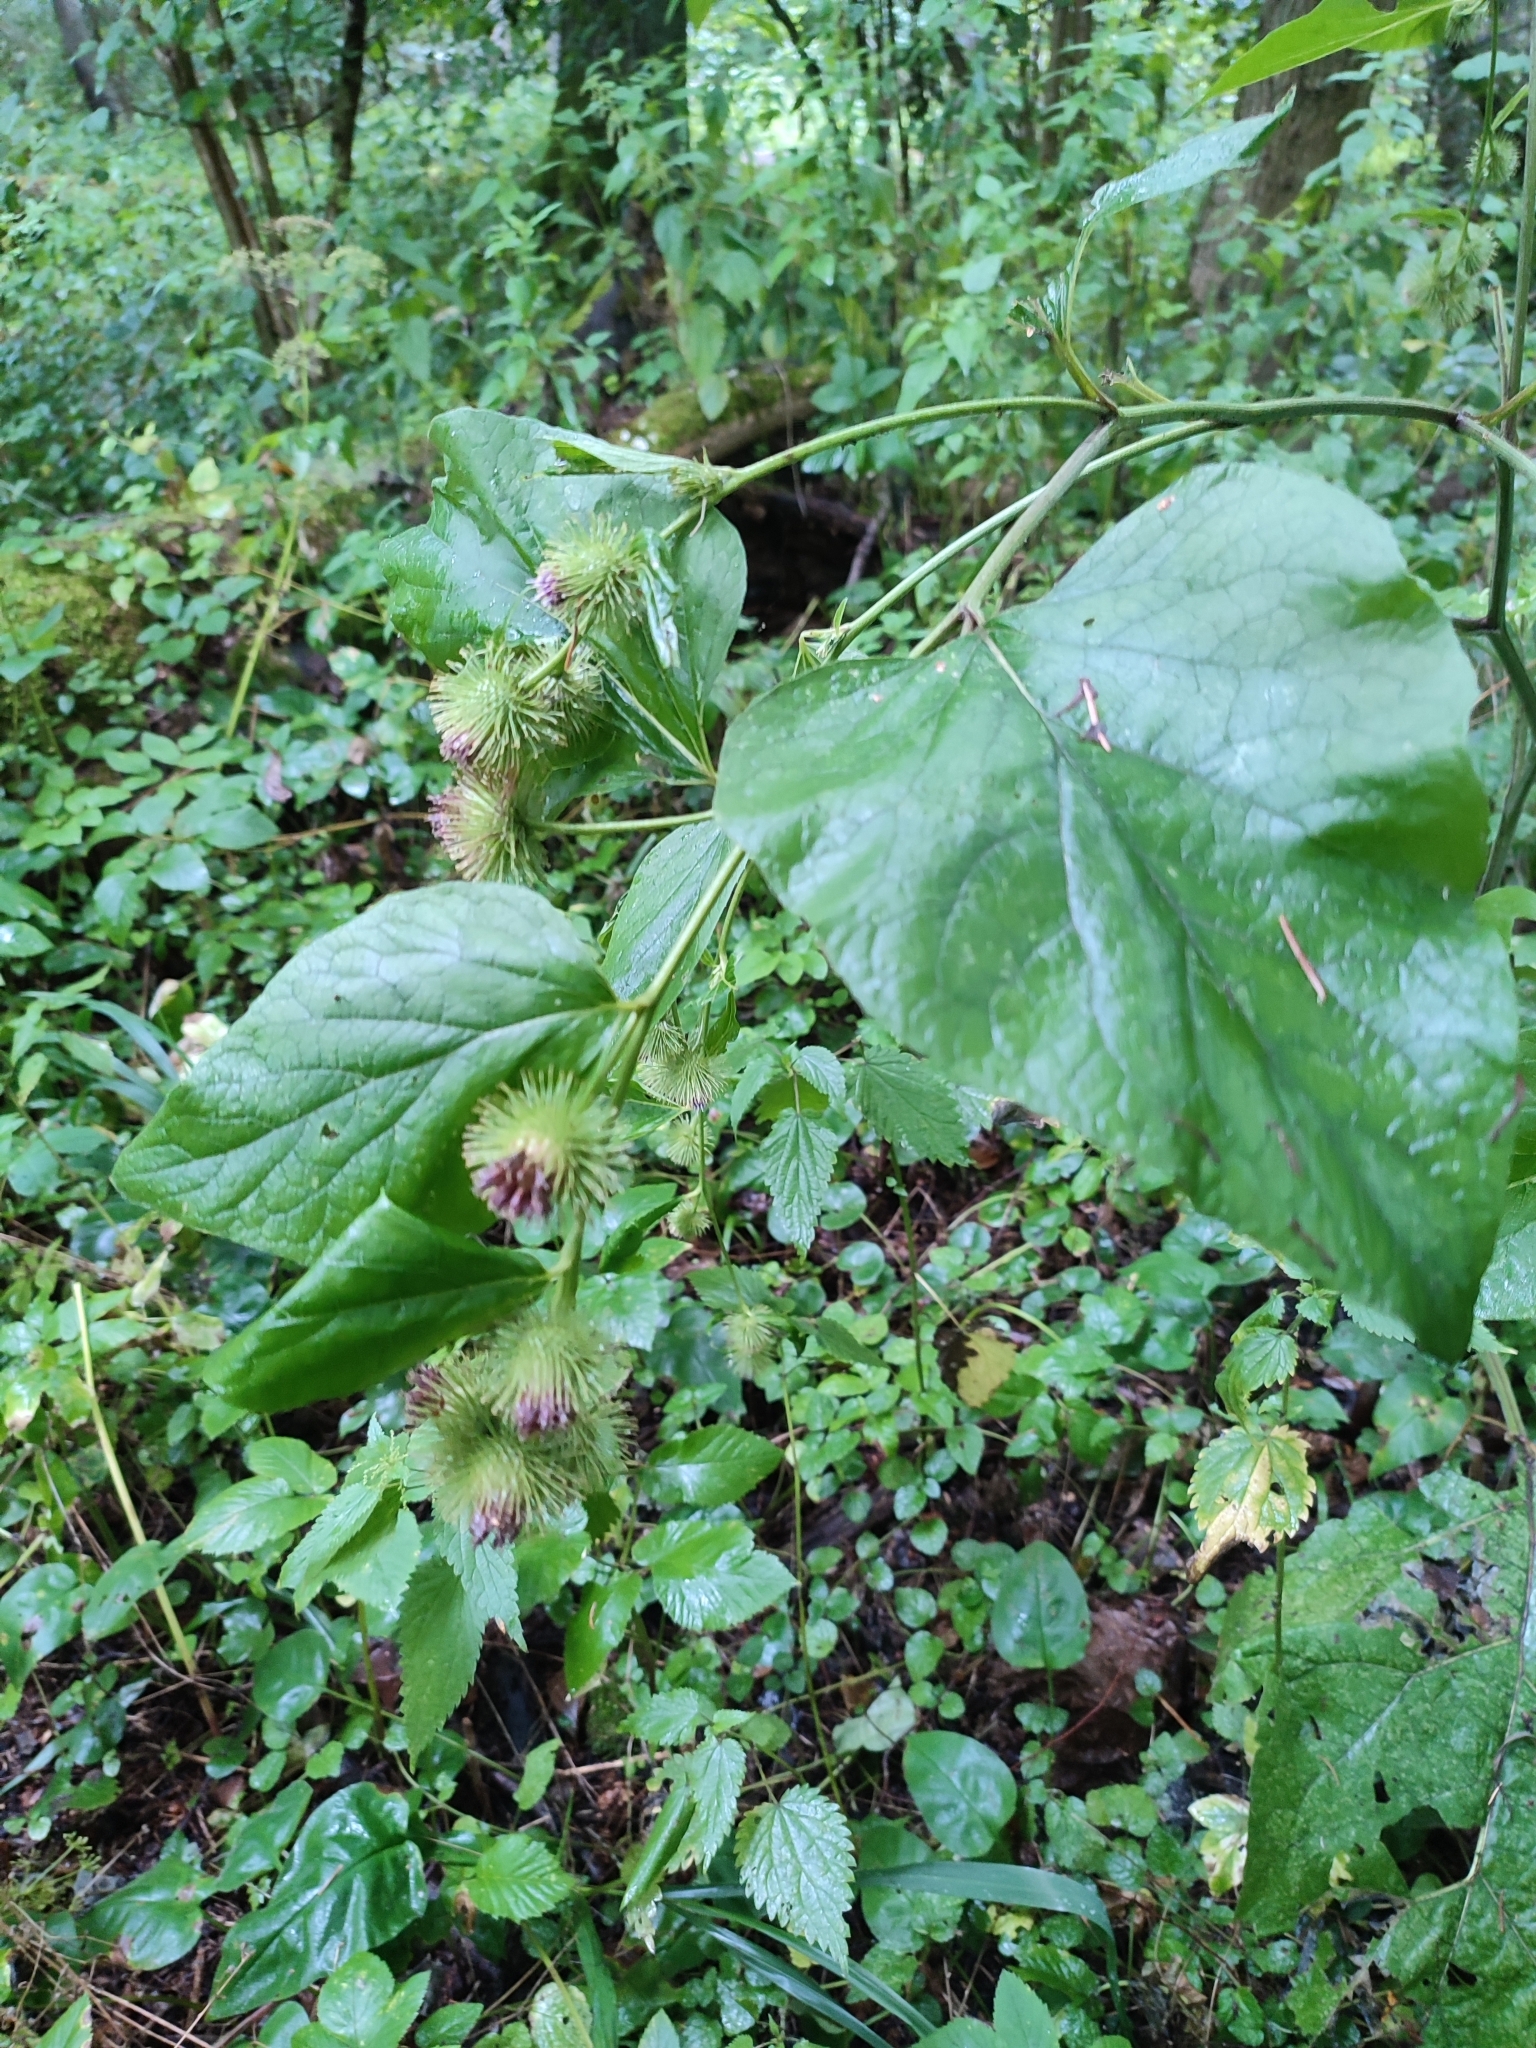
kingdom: Plantae
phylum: Tracheophyta
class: Magnoliopsida
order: Asterales
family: Asteraceae
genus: Arctium
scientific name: Arctium nemorosum
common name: Wood burdock
